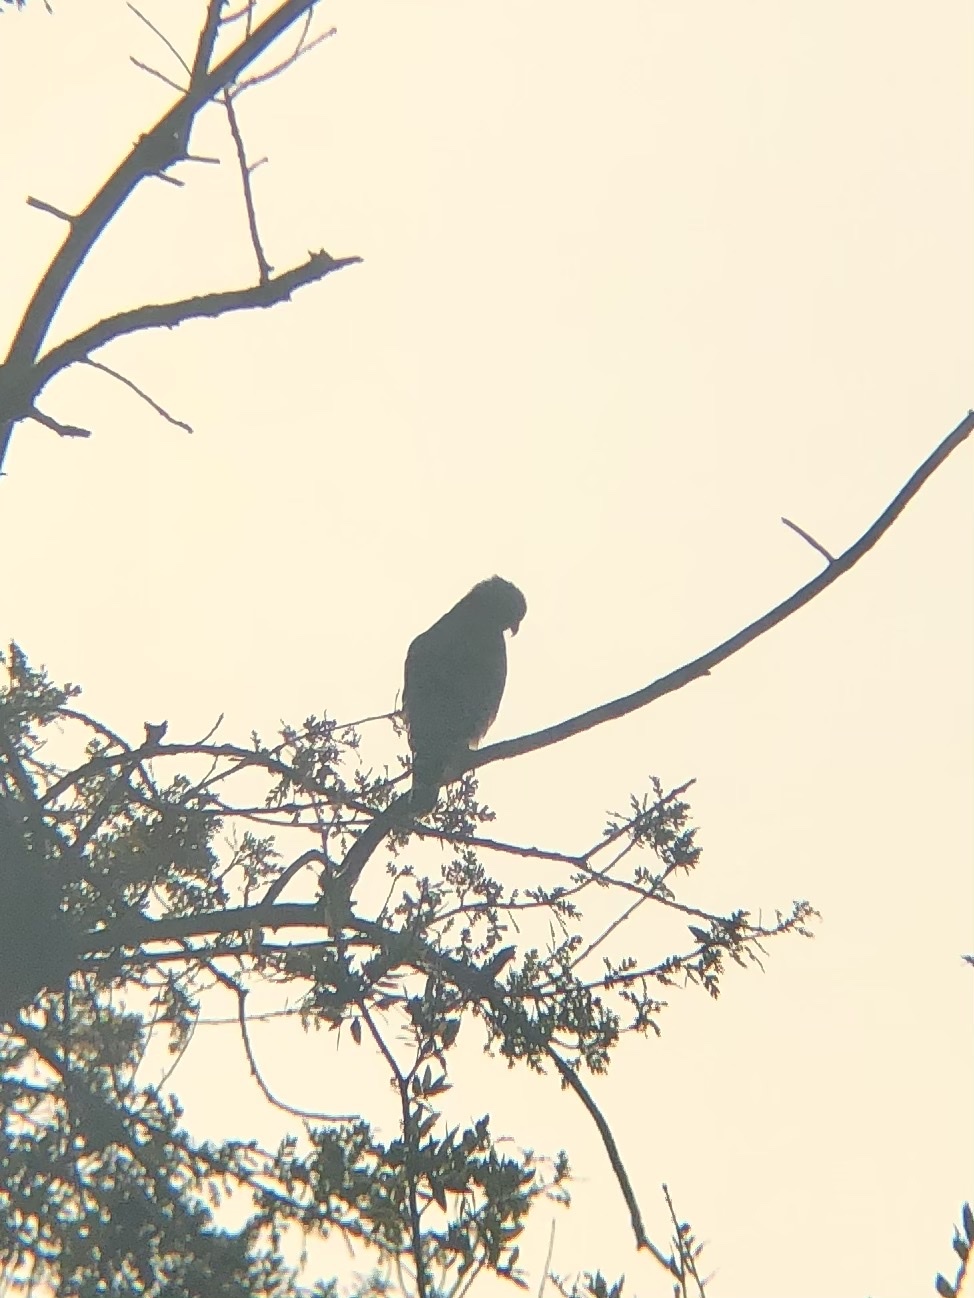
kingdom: Animalia
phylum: Chordata
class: Aves
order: Accipitriformes
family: Accipitridae
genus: Buteo
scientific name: Buteo lineatus
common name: Red-shouldered hawk
